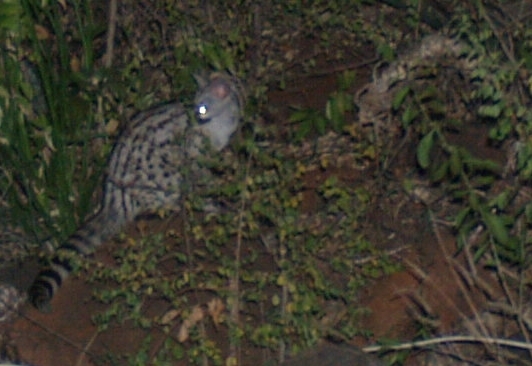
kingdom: Animalia
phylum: Chordata
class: Mammalia
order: Carnivora
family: Viverridae
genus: Genetta
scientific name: Genetta genetta
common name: Common genet
